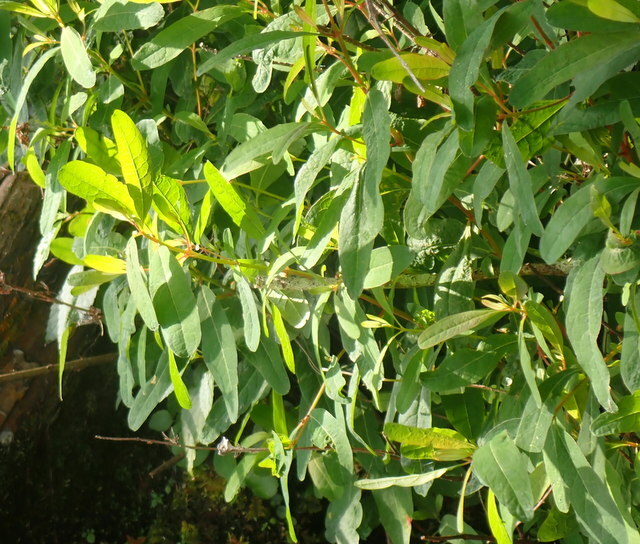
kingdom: Plantae
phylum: Tracheophyta
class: Magnoliopsida
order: Malpighiales
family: Hypericaceae
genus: Triadenum
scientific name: Triadenum walteri
